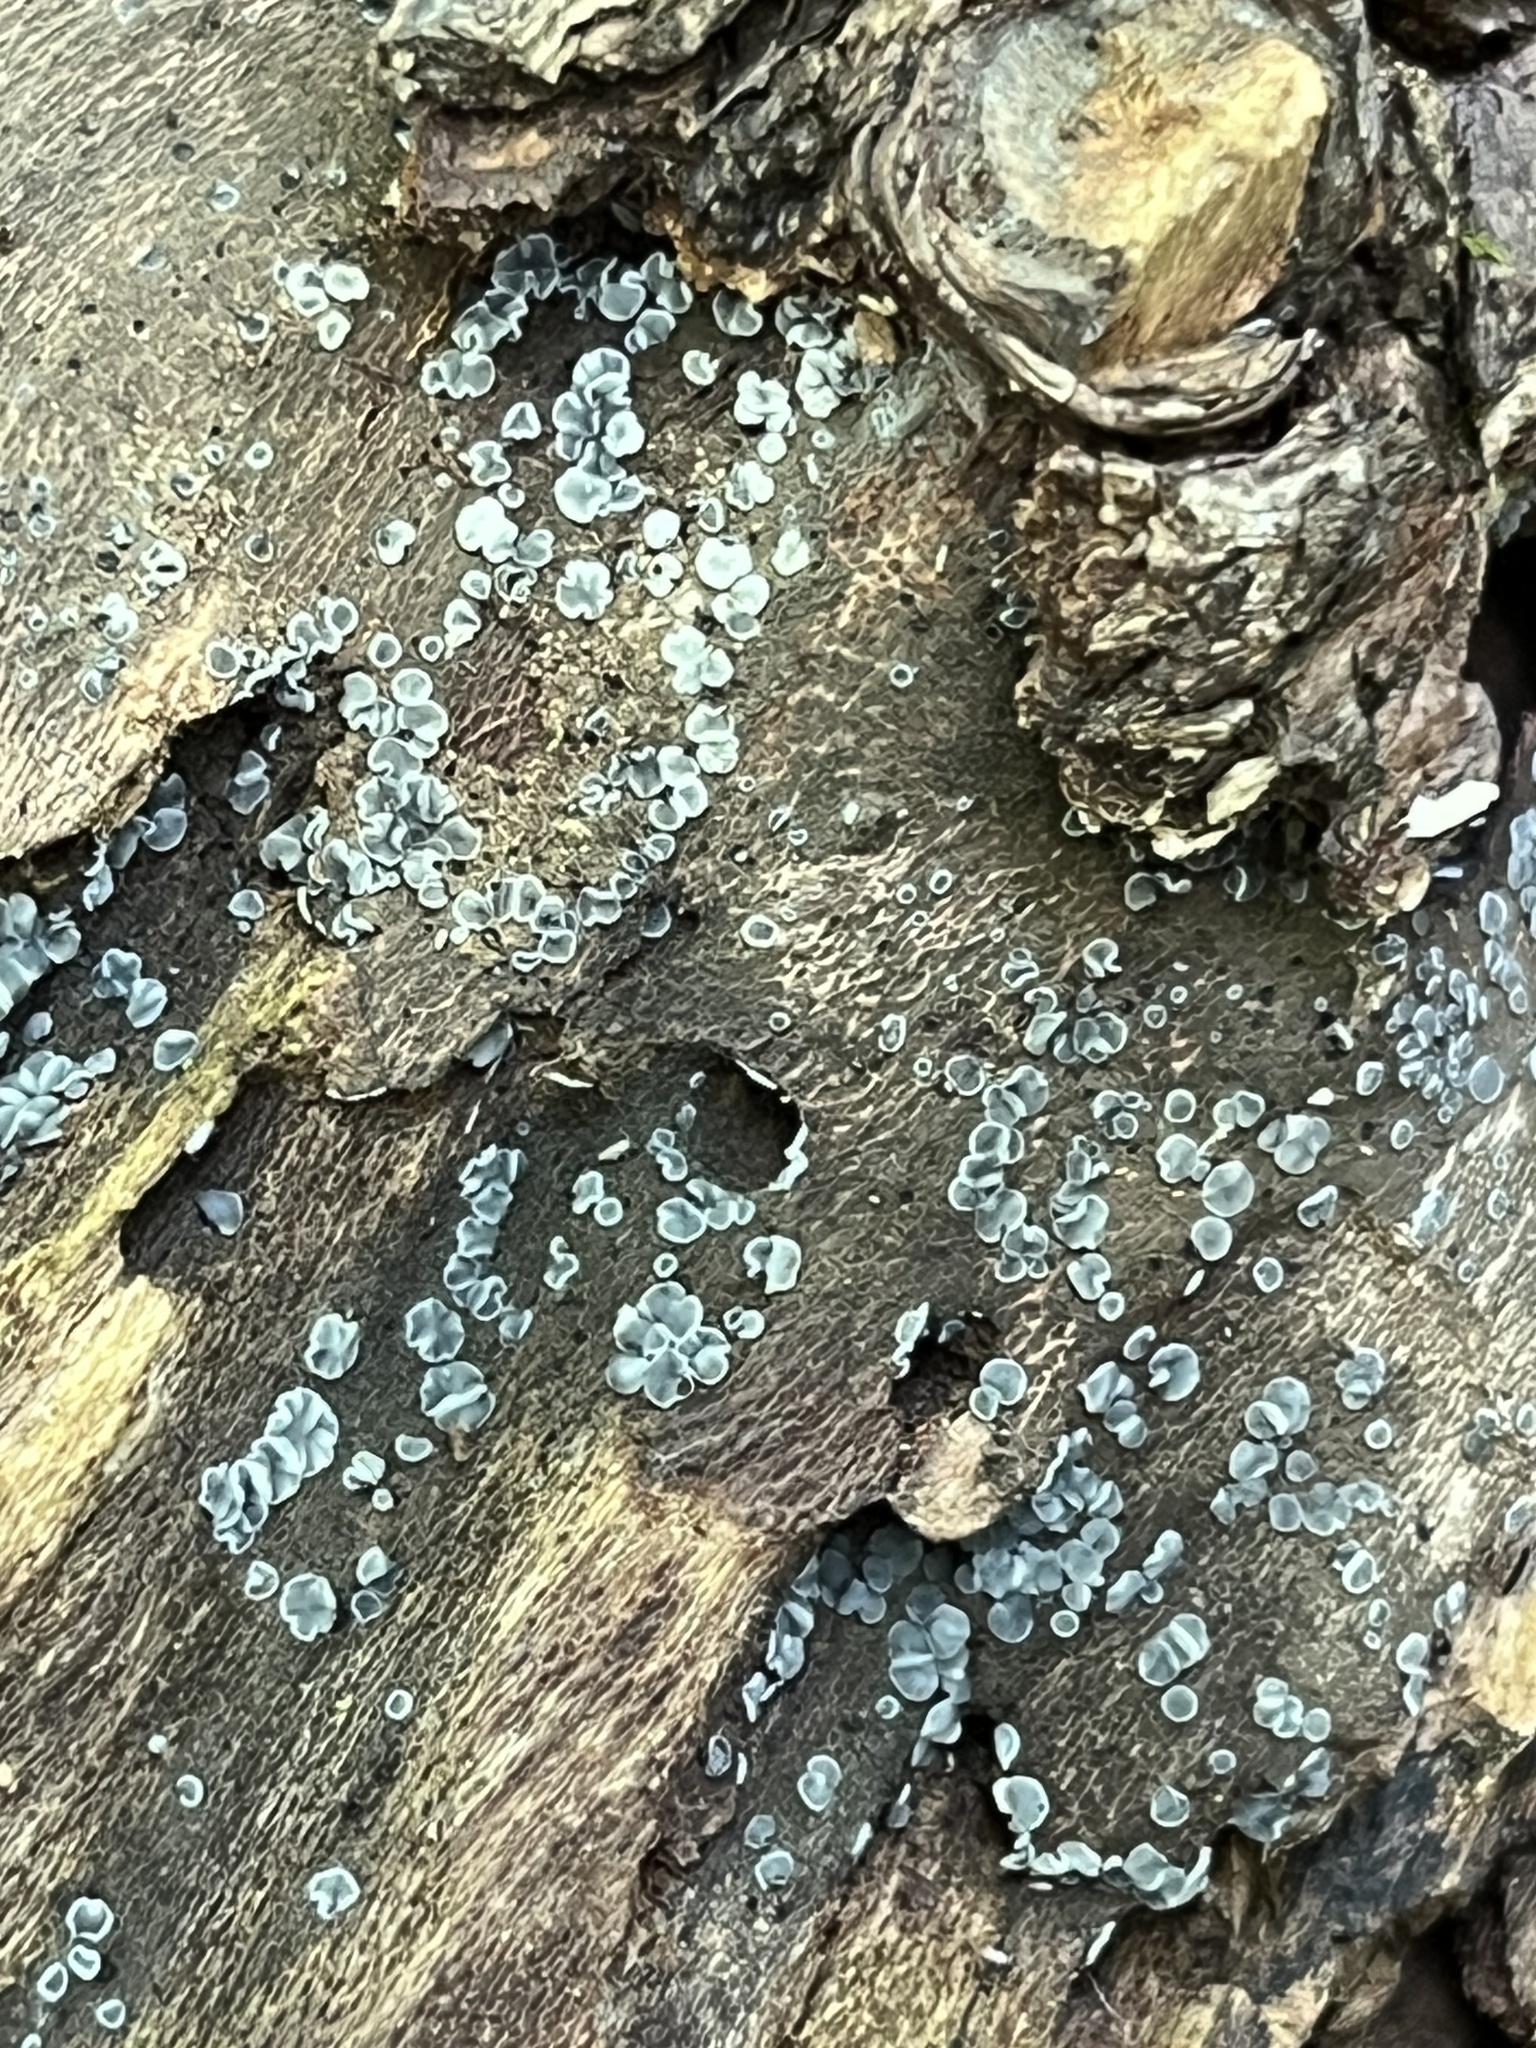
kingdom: Fungi
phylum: Ascomycota
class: Leotiomycetes
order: Helotiales
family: Mollisiaceae
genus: Mollisia
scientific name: Mollisia cinerea
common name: Common grey disco
